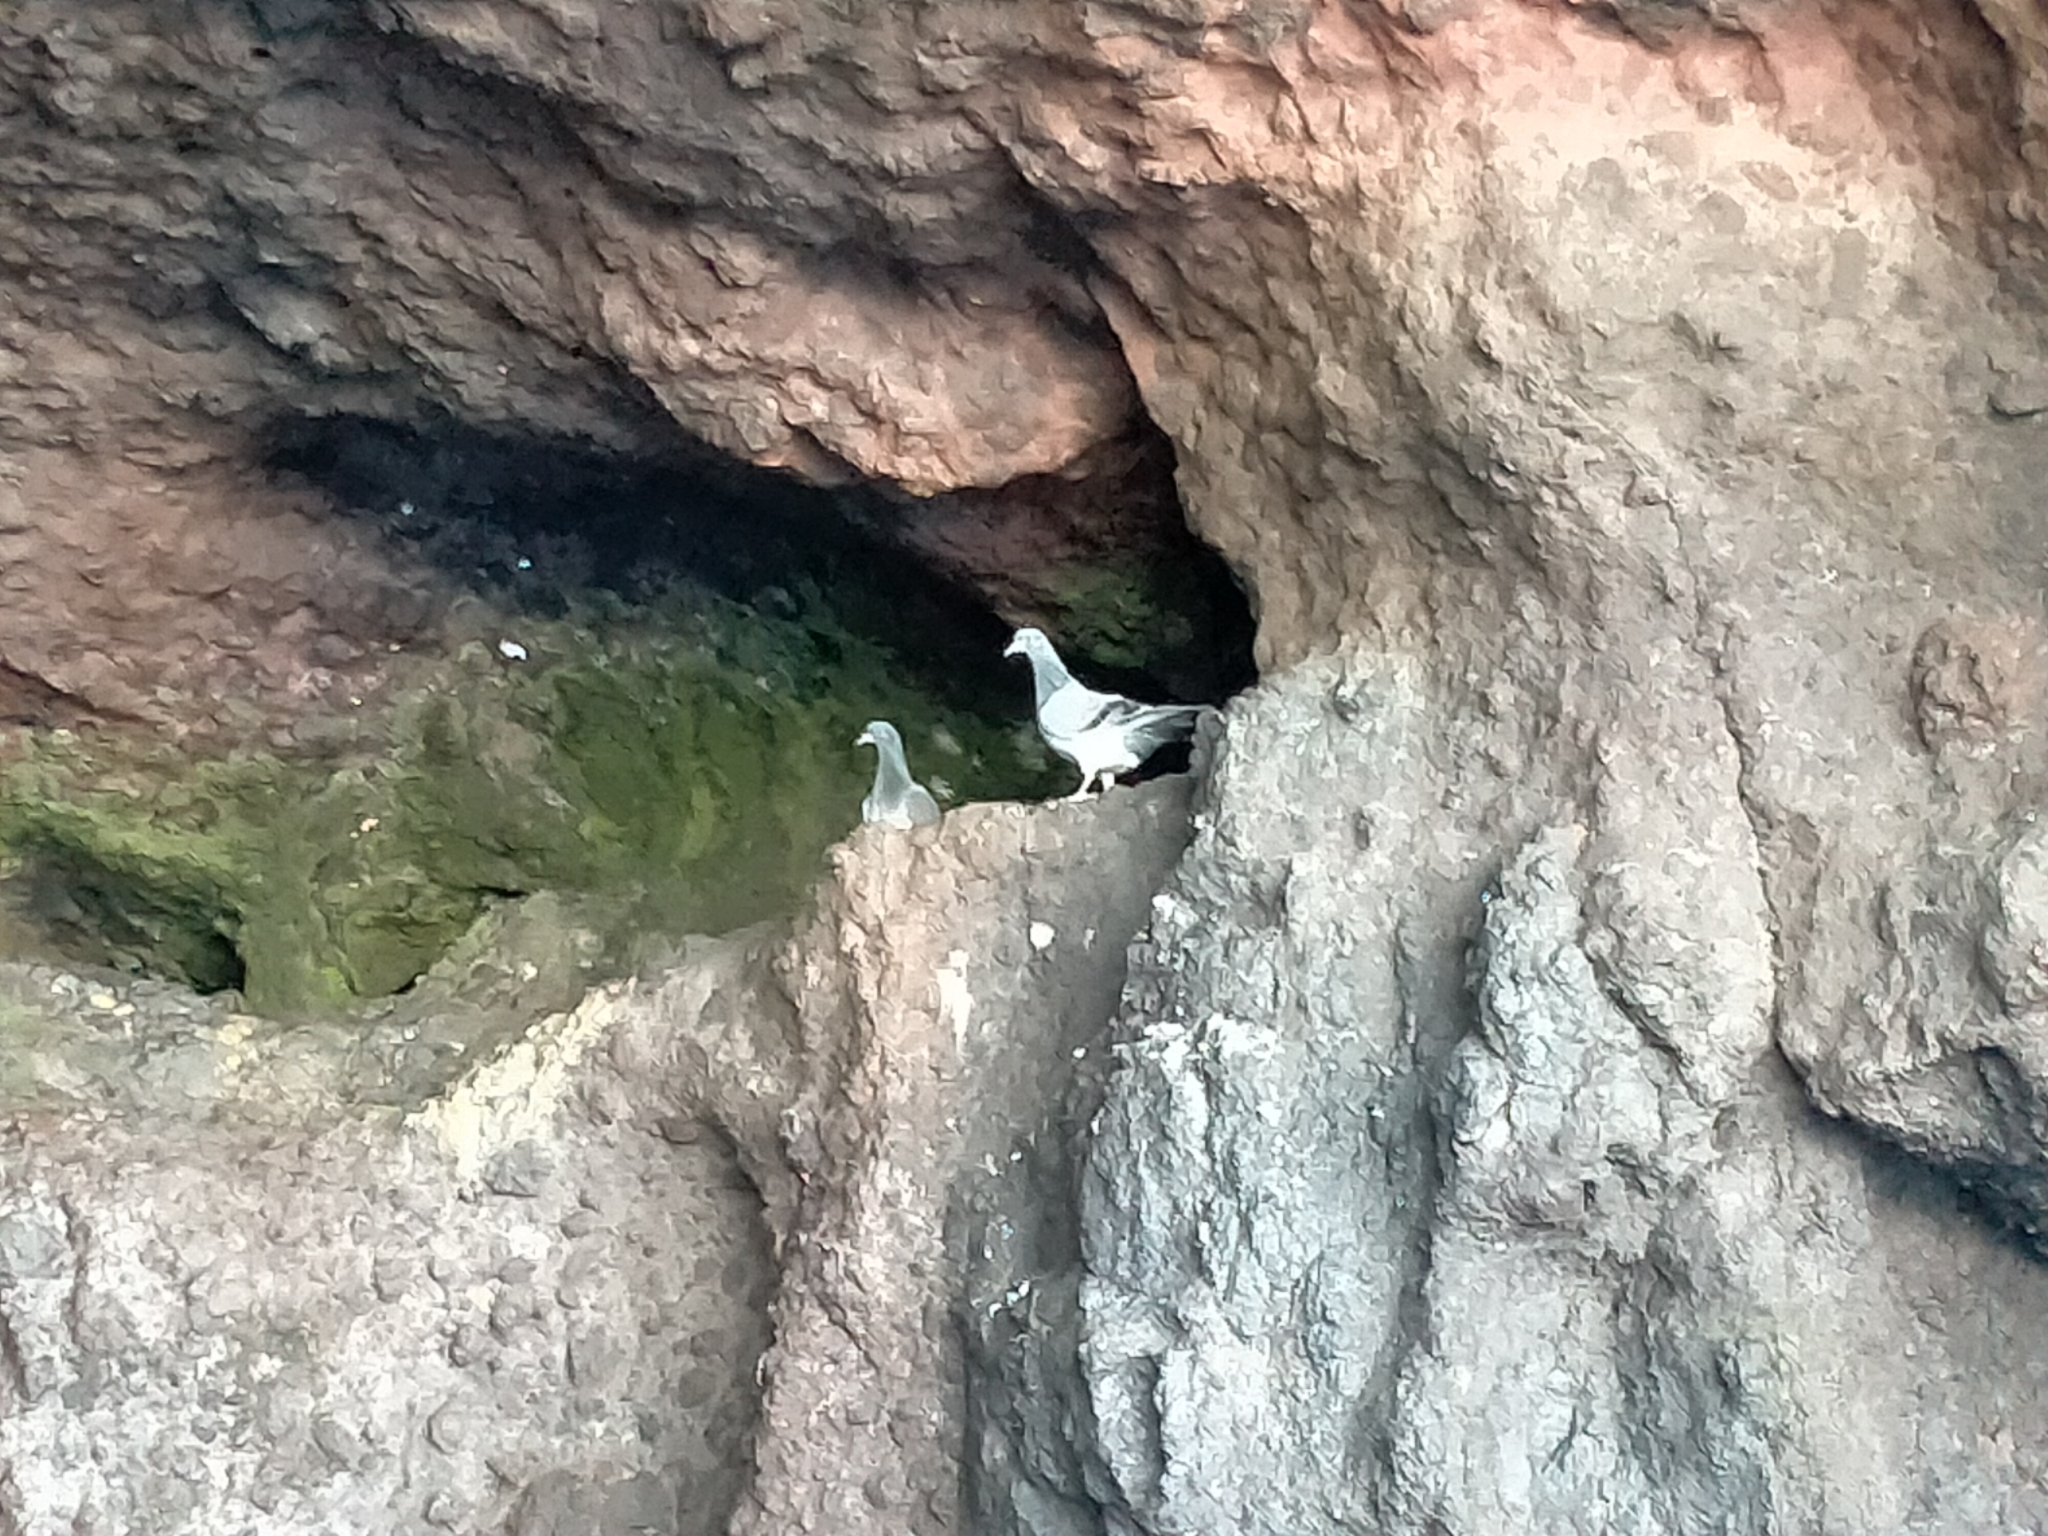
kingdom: Animalia
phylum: Chordata
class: Aves
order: Columbiformes
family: Columbidae
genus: Columba
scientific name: Columba livia
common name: Rock pigeon
